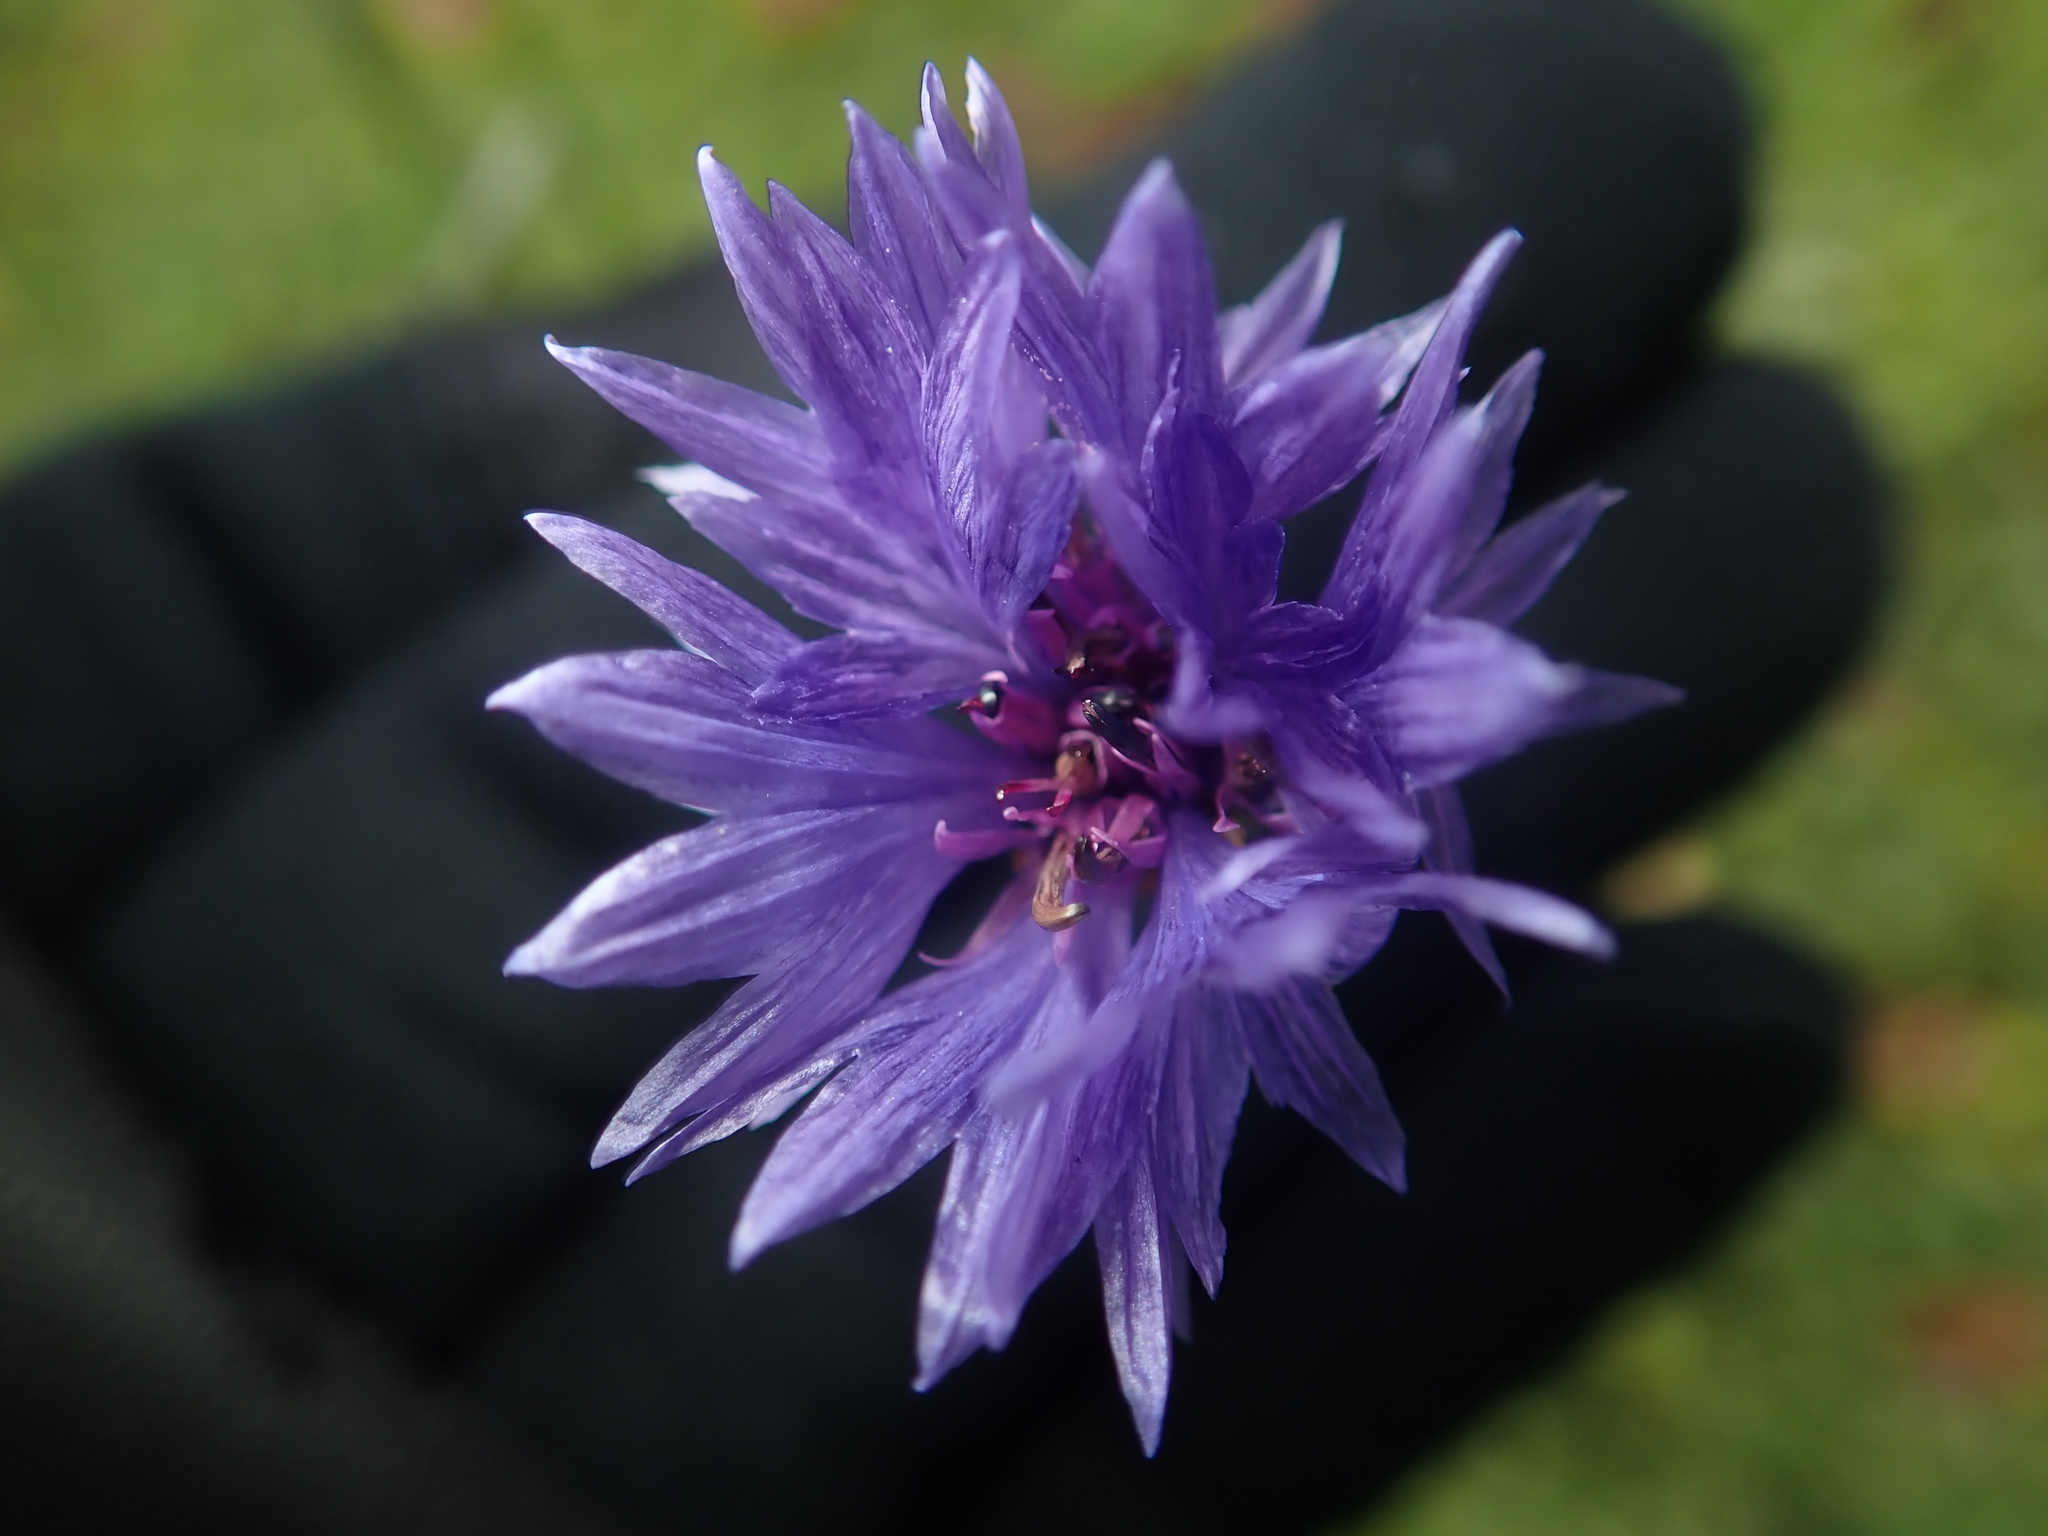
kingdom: Plantae
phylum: Tracheophyta
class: Magnoliopsida
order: Asterales
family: Asteraceae
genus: Centaurea
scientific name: Centaurea cyanus
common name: Cornflower
